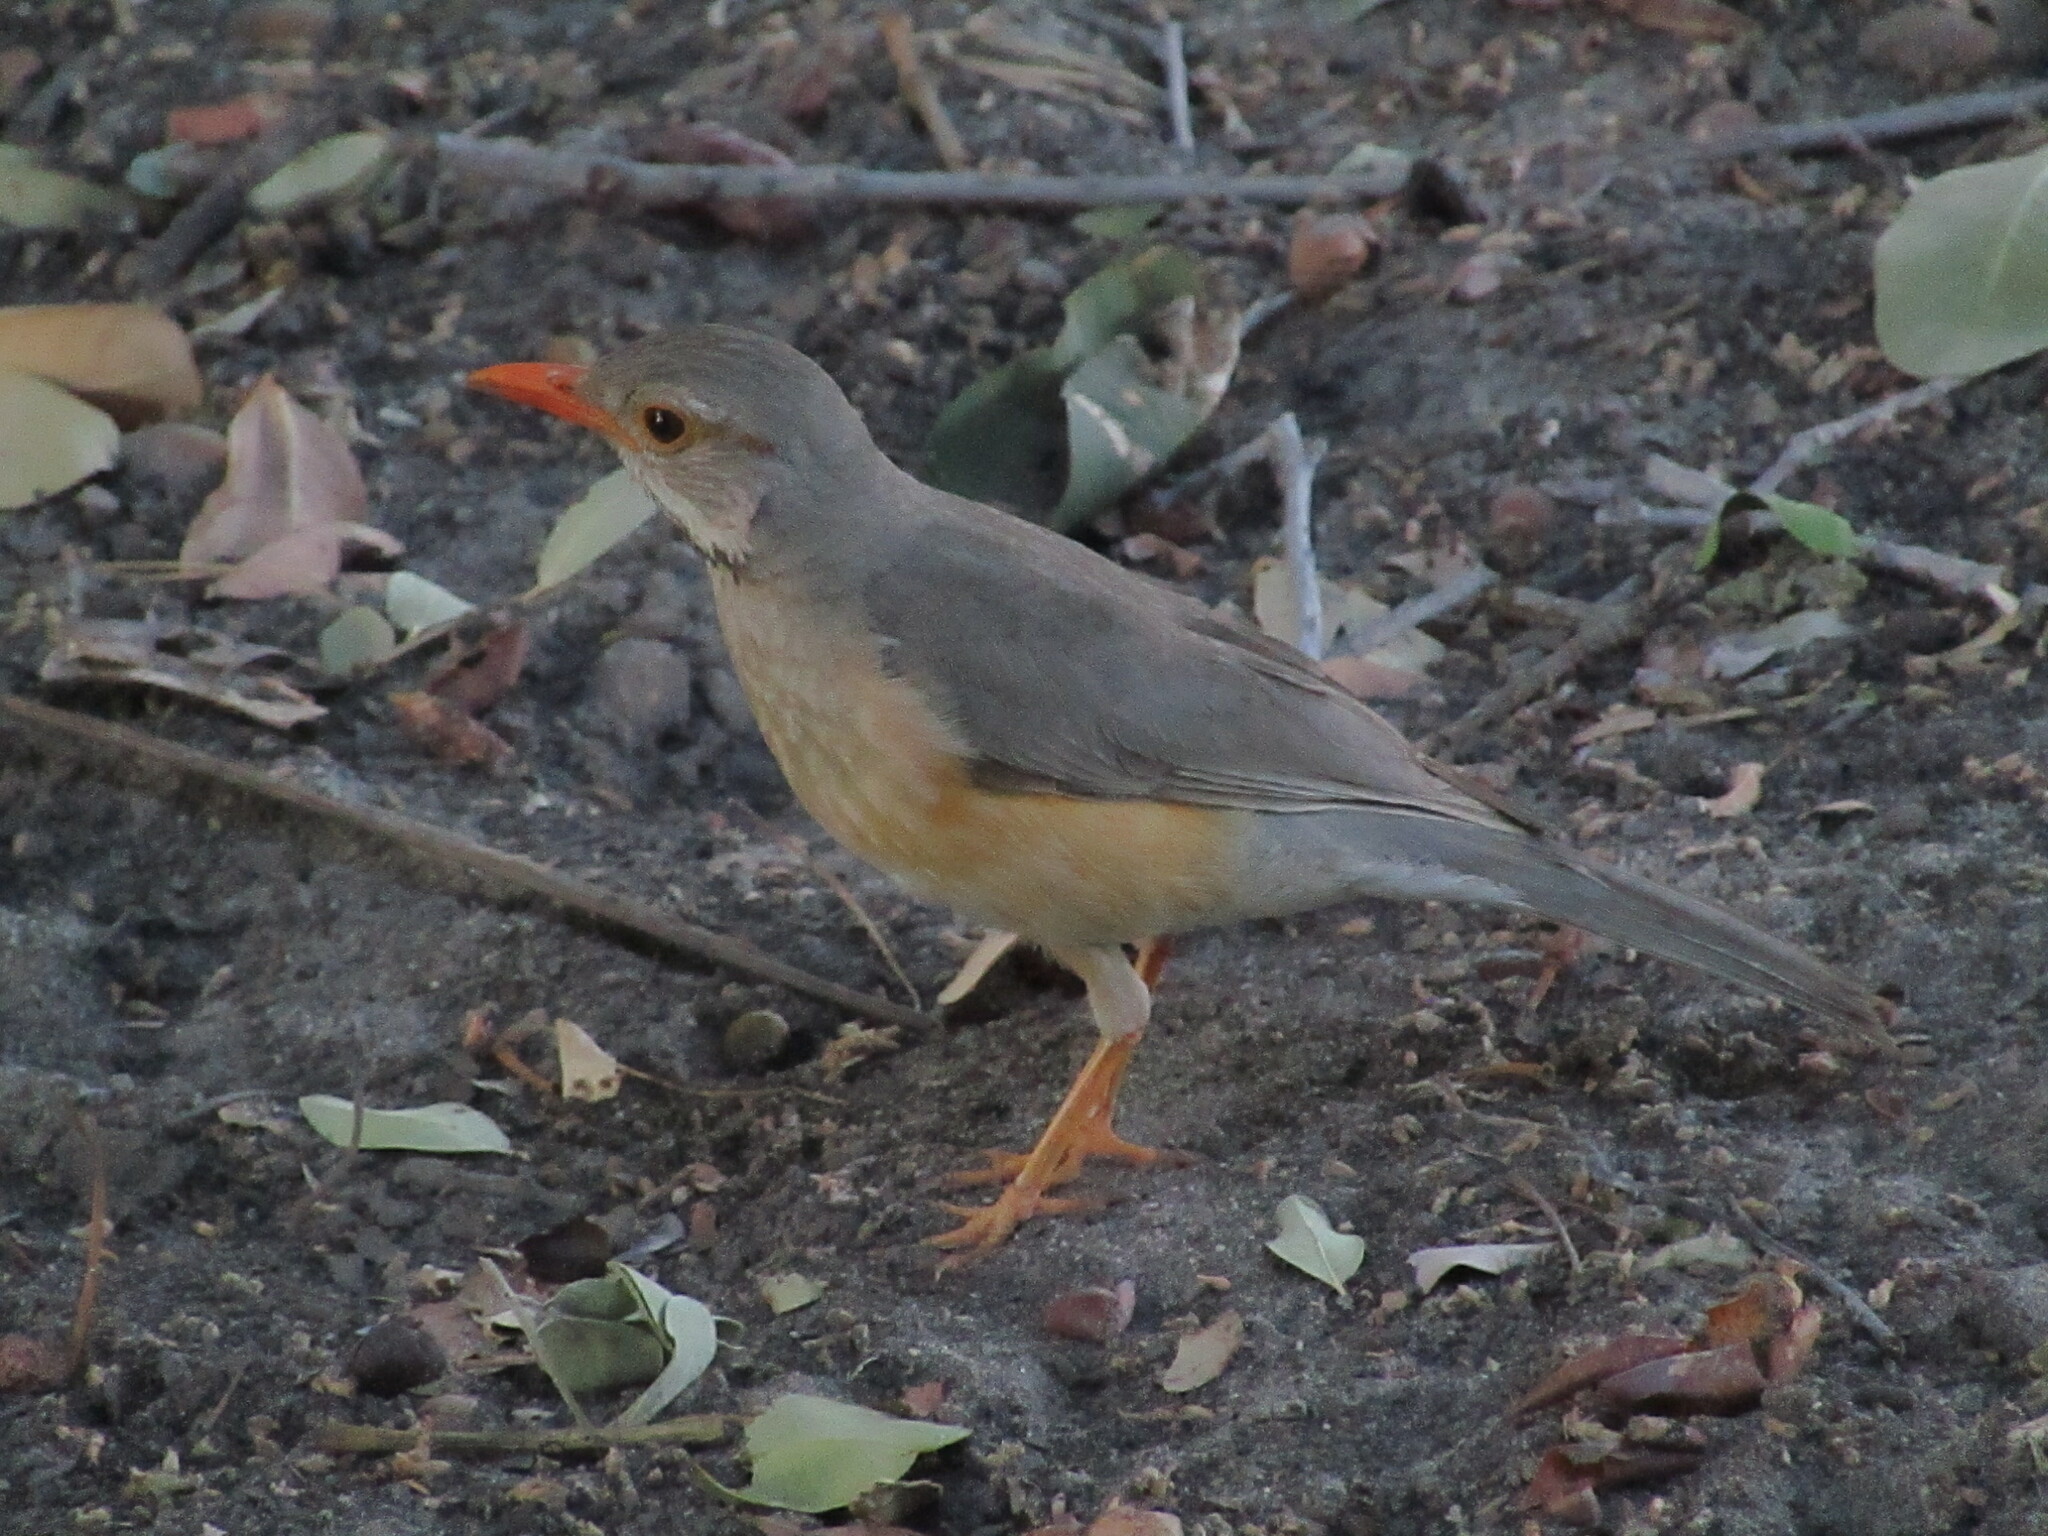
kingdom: Animalia
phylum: Chordata
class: Aves
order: Passeriformes
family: Turdidae
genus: Turdus
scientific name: Turdus libonyana
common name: Kurrichane thrush
